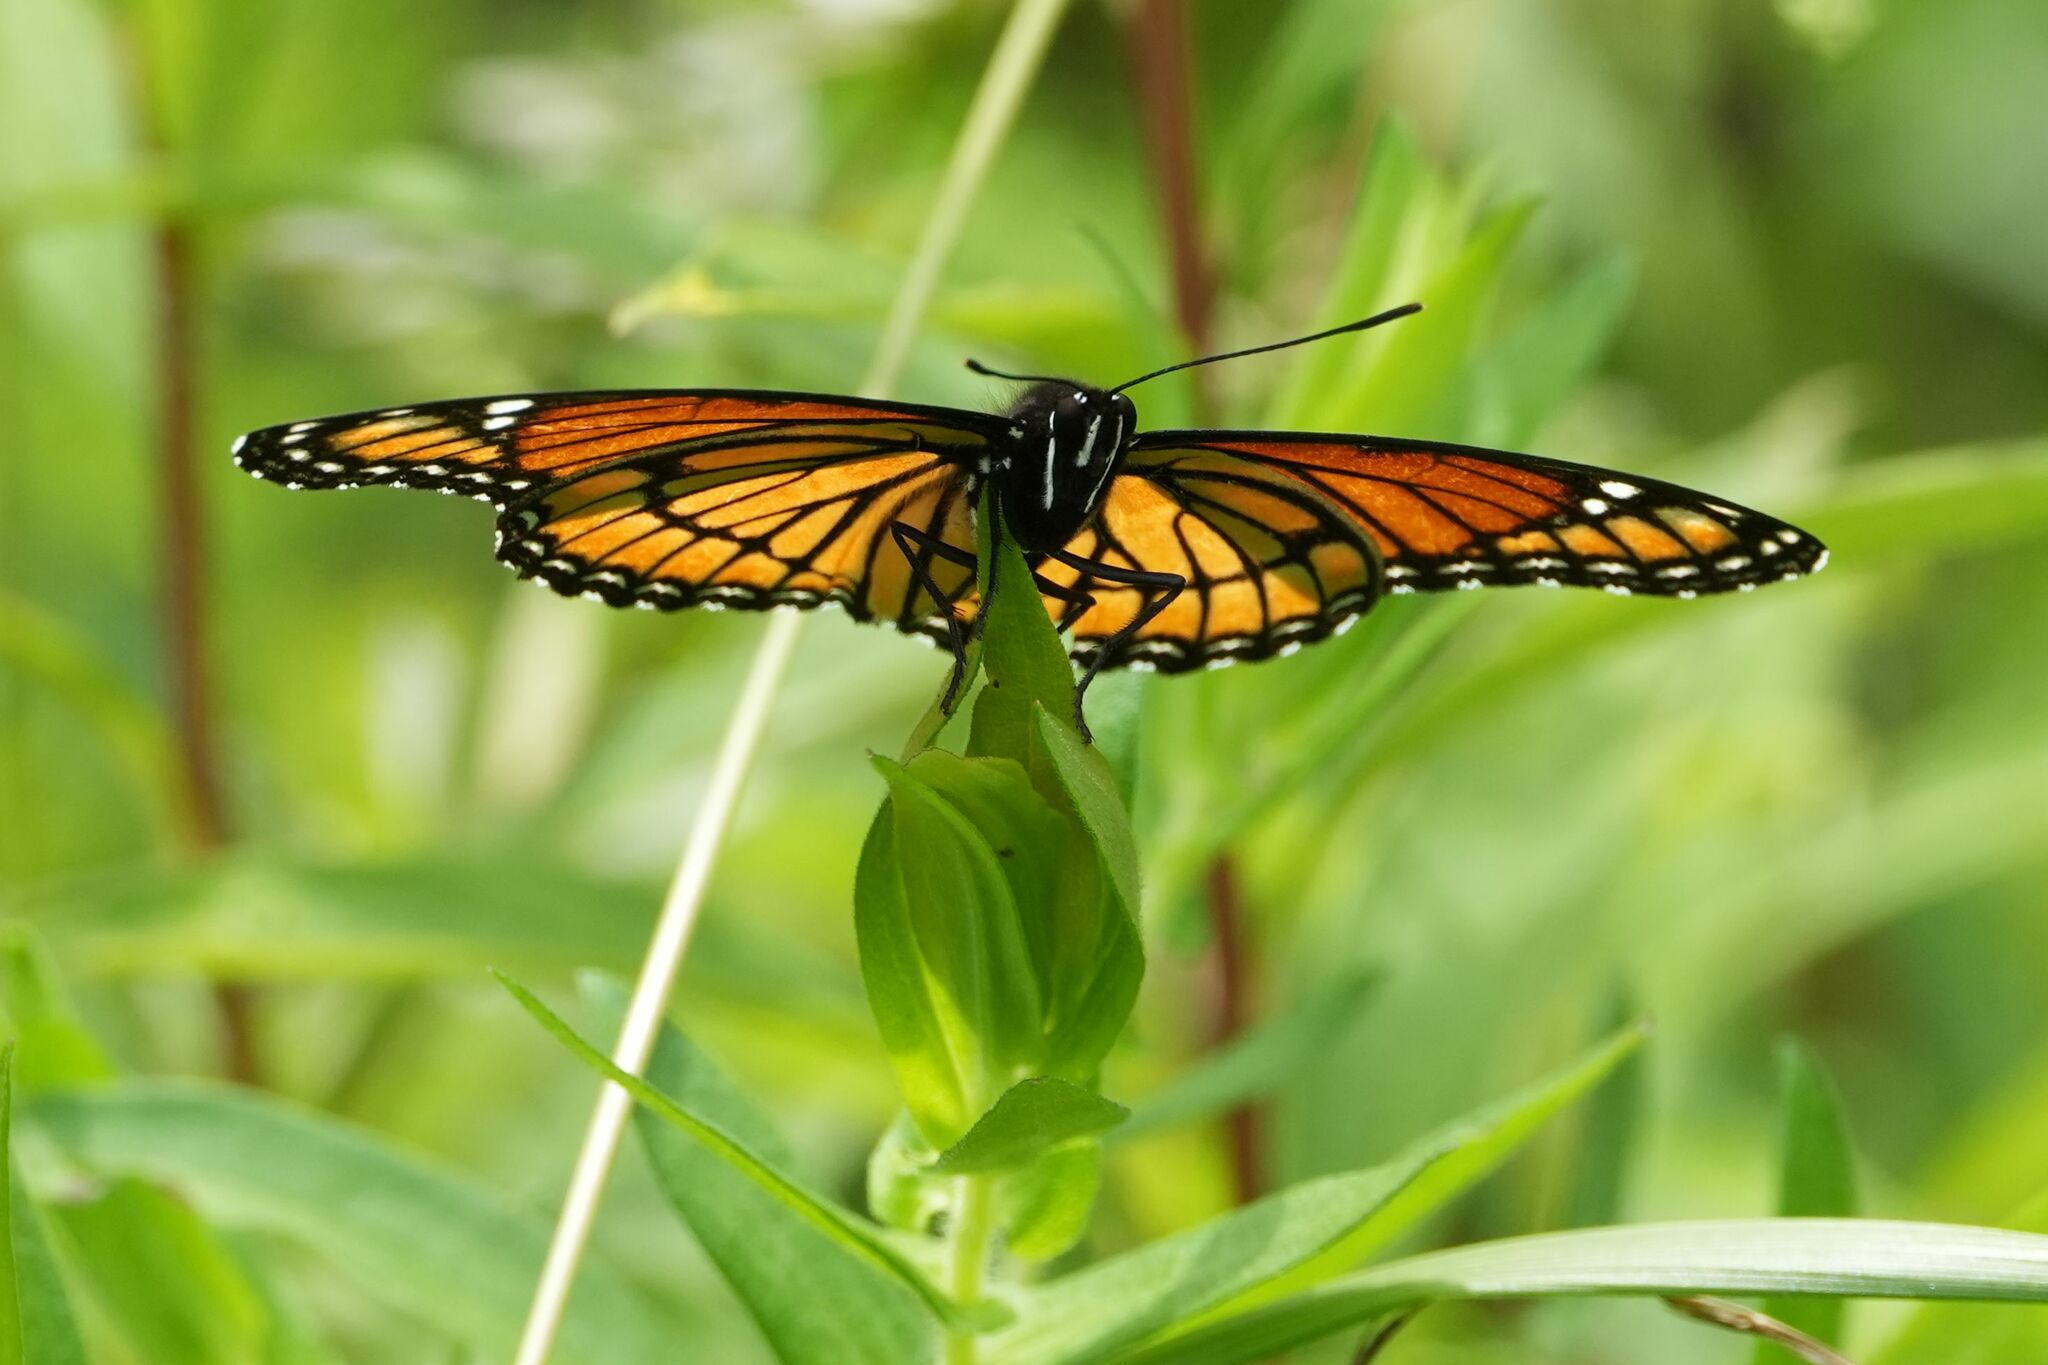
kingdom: Animalia
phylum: Arthropoda
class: Insecta
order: Lepidoptera
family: Nymphalidae
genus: Limenitis
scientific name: Limenitis archippus
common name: Viceroy
